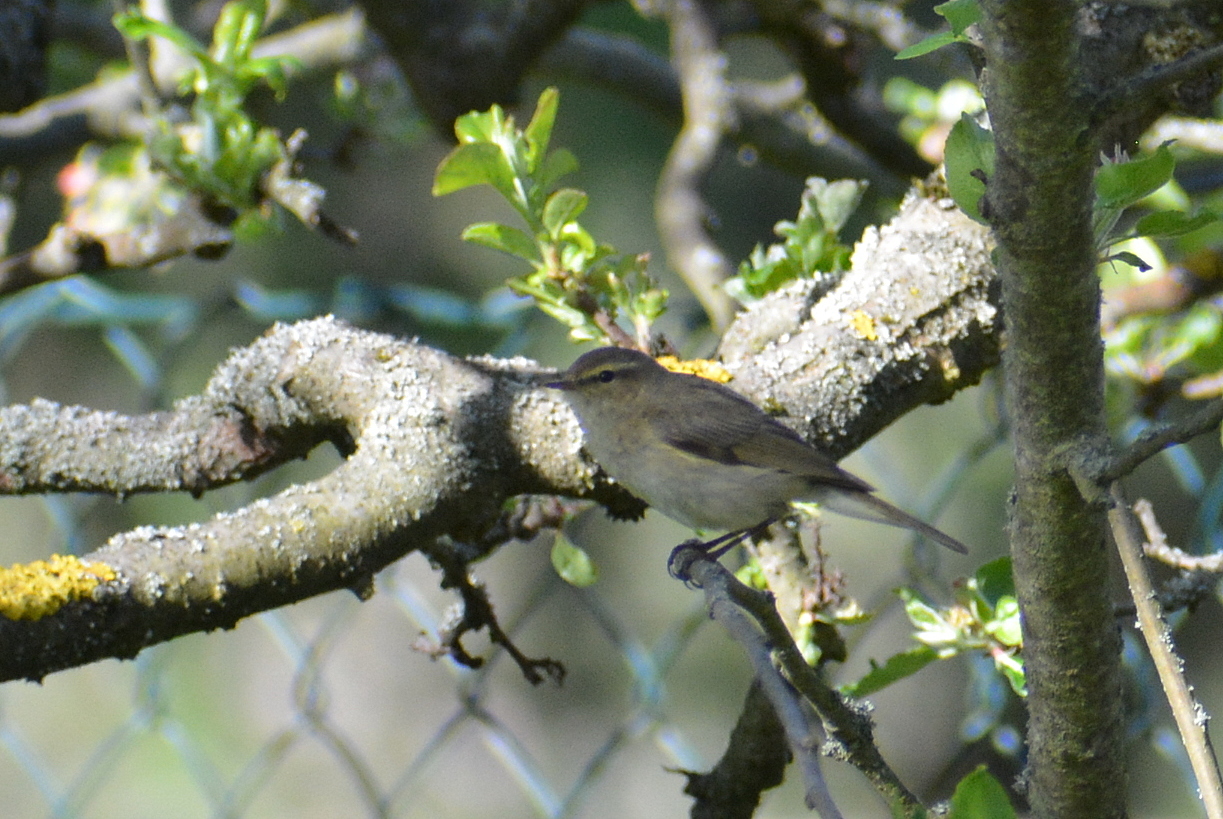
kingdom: Animalia
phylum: Chordata
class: Aves
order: Passeriformes
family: Phylloscopidae
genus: Phylloscopus
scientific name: Phylloscopus collybita
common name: Common chiffchaff
